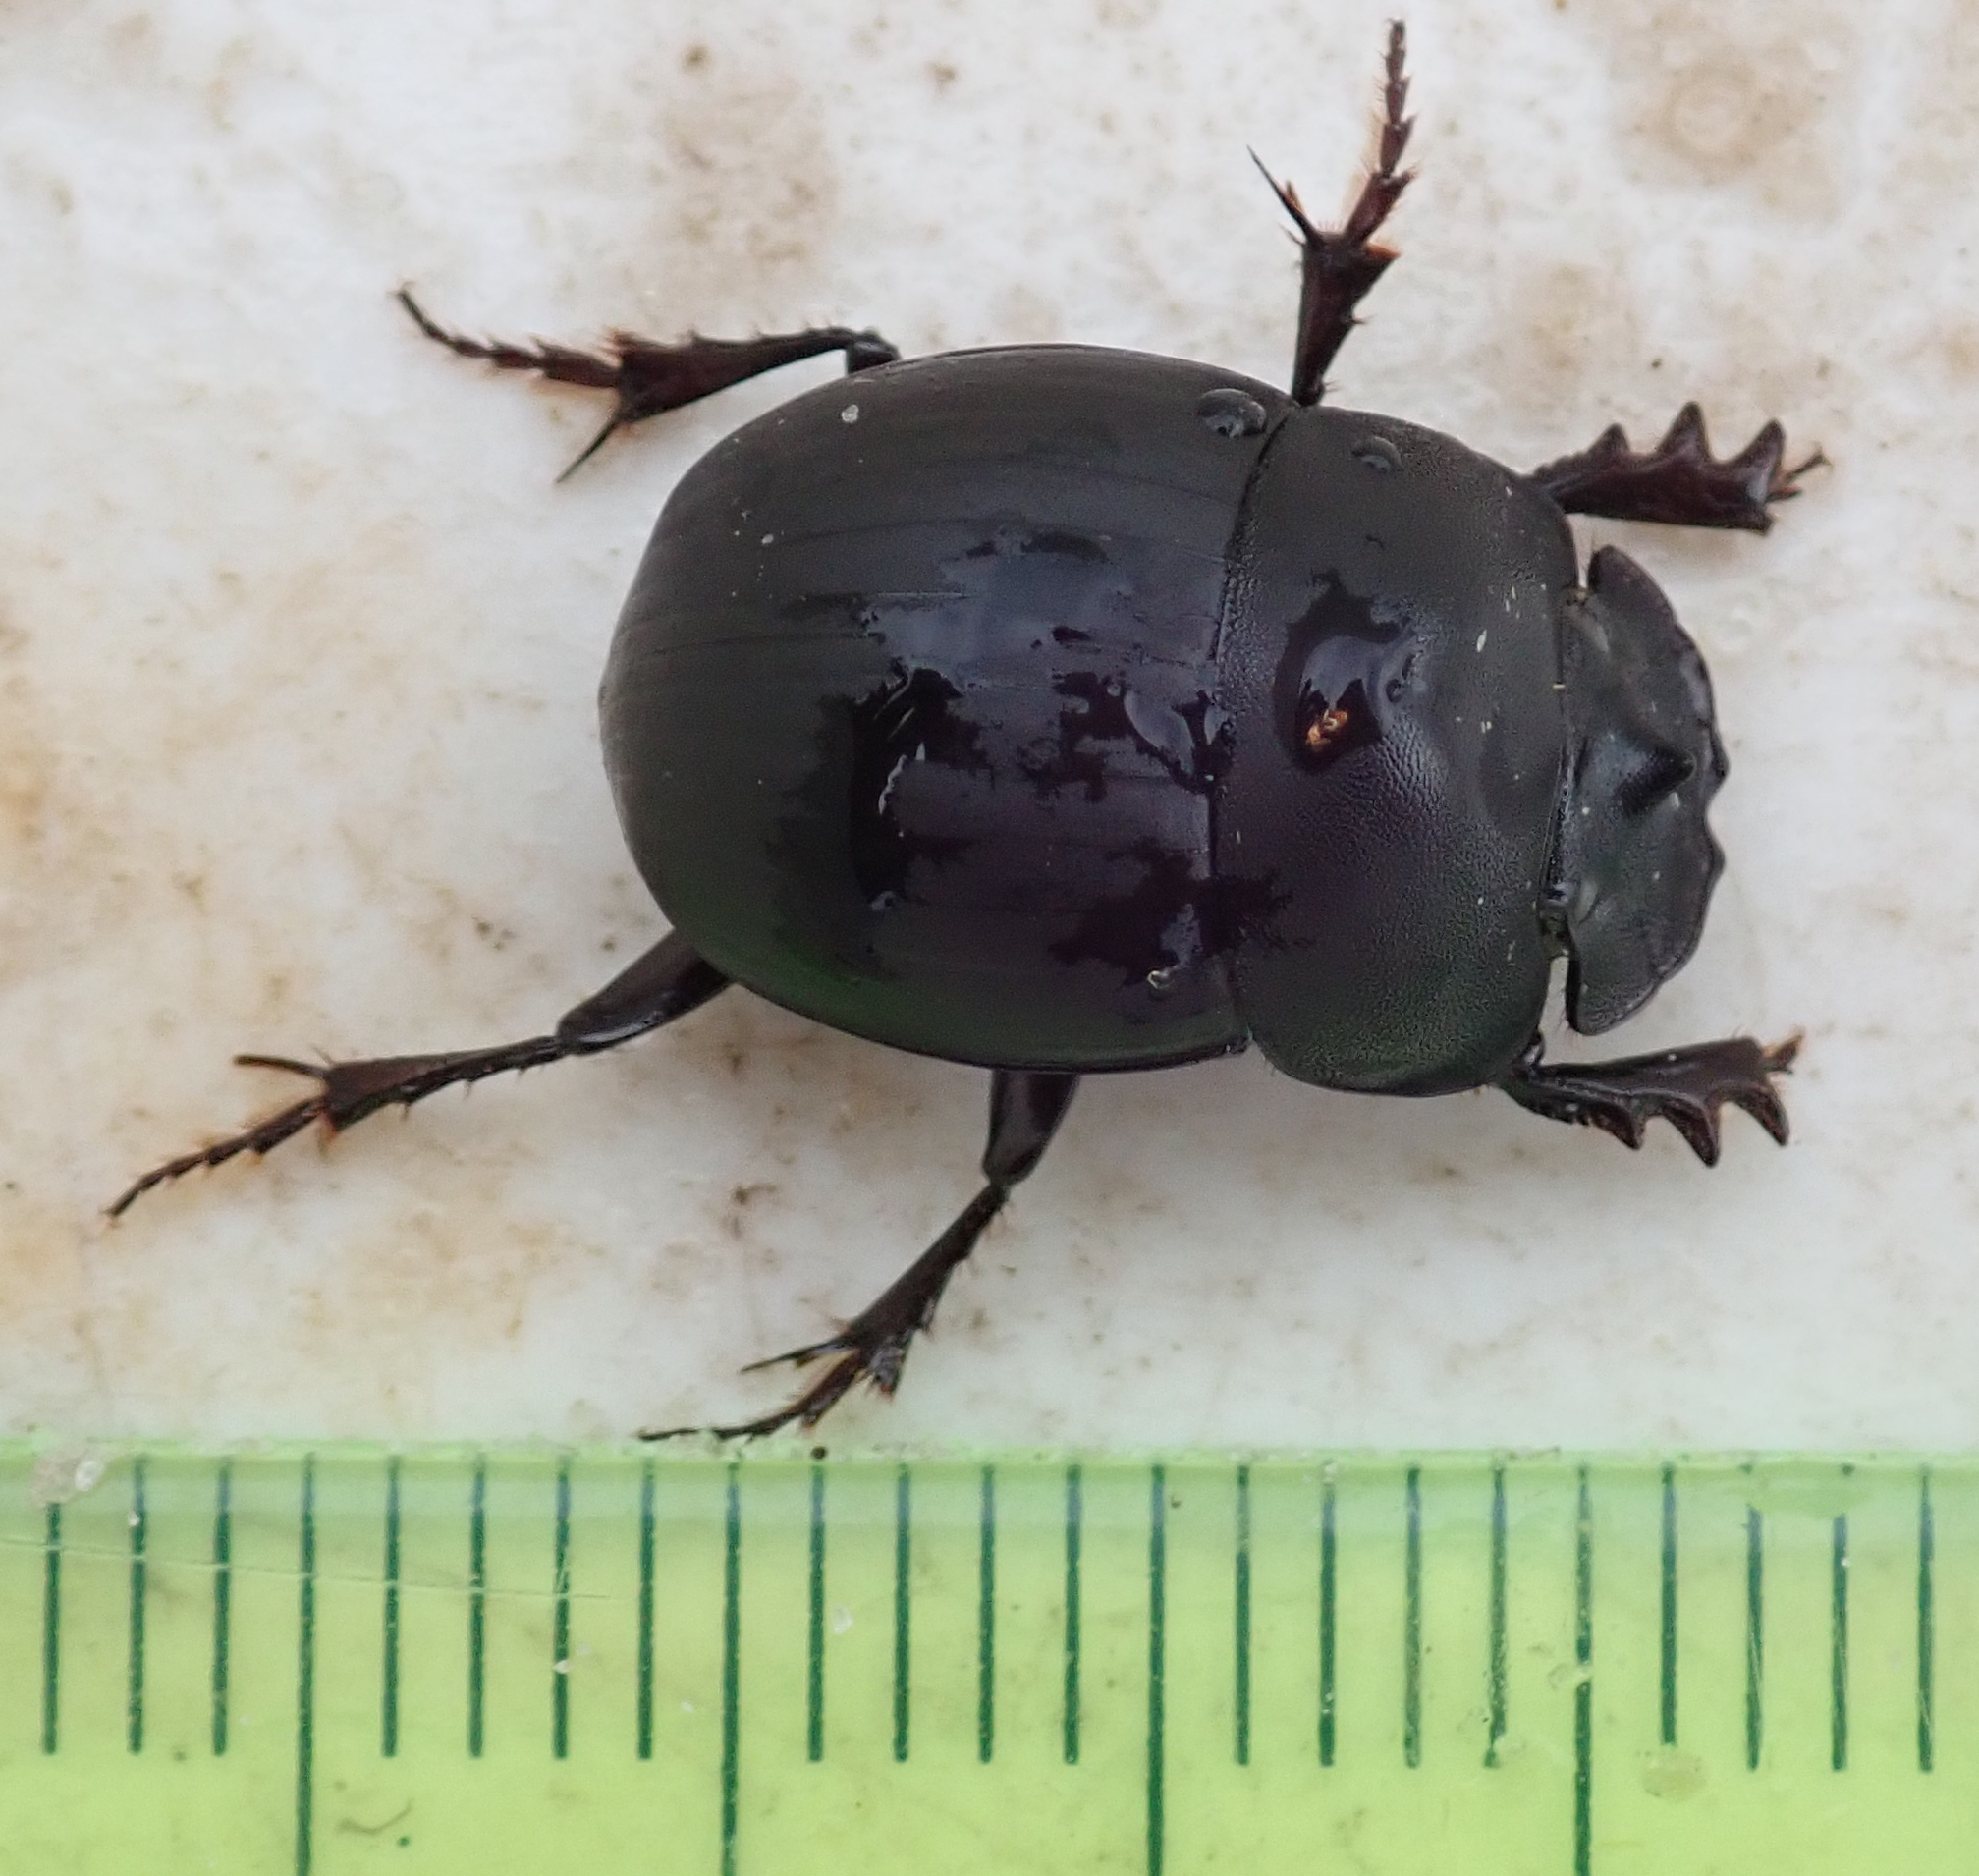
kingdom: Animalia
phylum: Arthropoda
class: Insecta
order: Coleoptera
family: Scarabaeidae
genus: Metacatharsius
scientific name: Metacatharsius opacus
